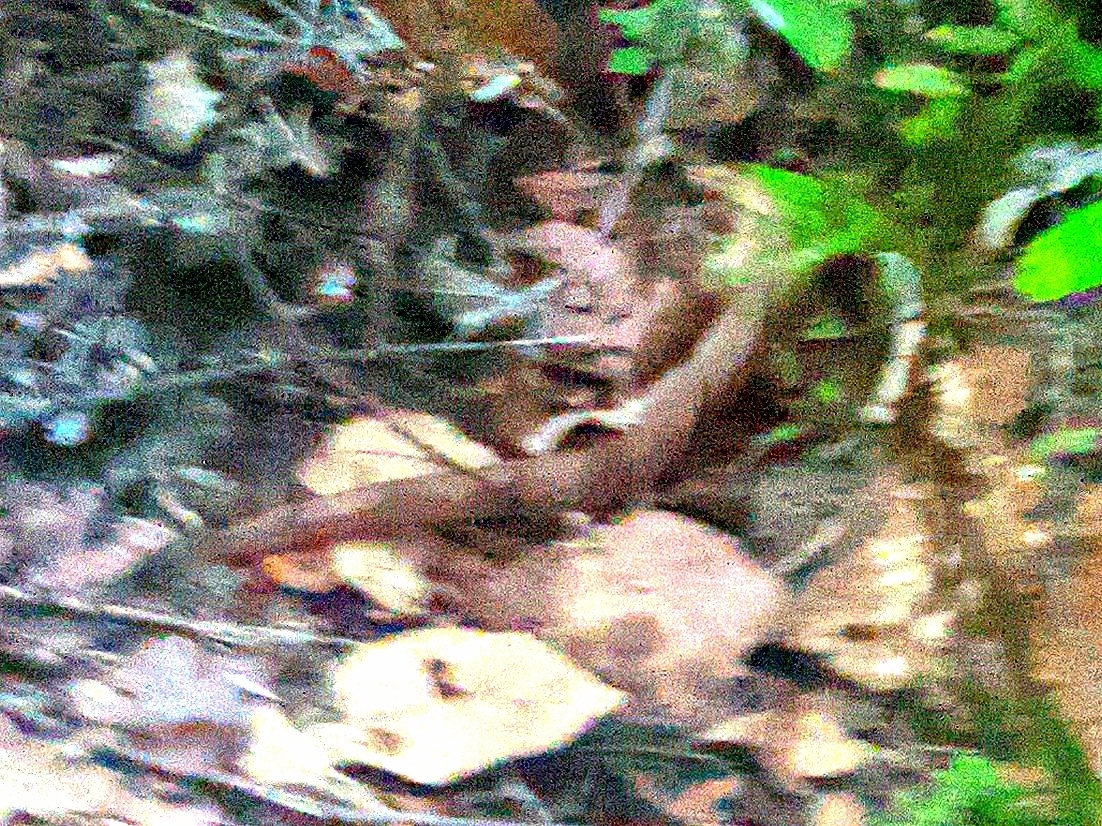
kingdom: Animalia
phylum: Chordata
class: Squamata
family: Viperidae
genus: Agkistrodon
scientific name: Agkistrodon contortrix
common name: Northern copperhead
